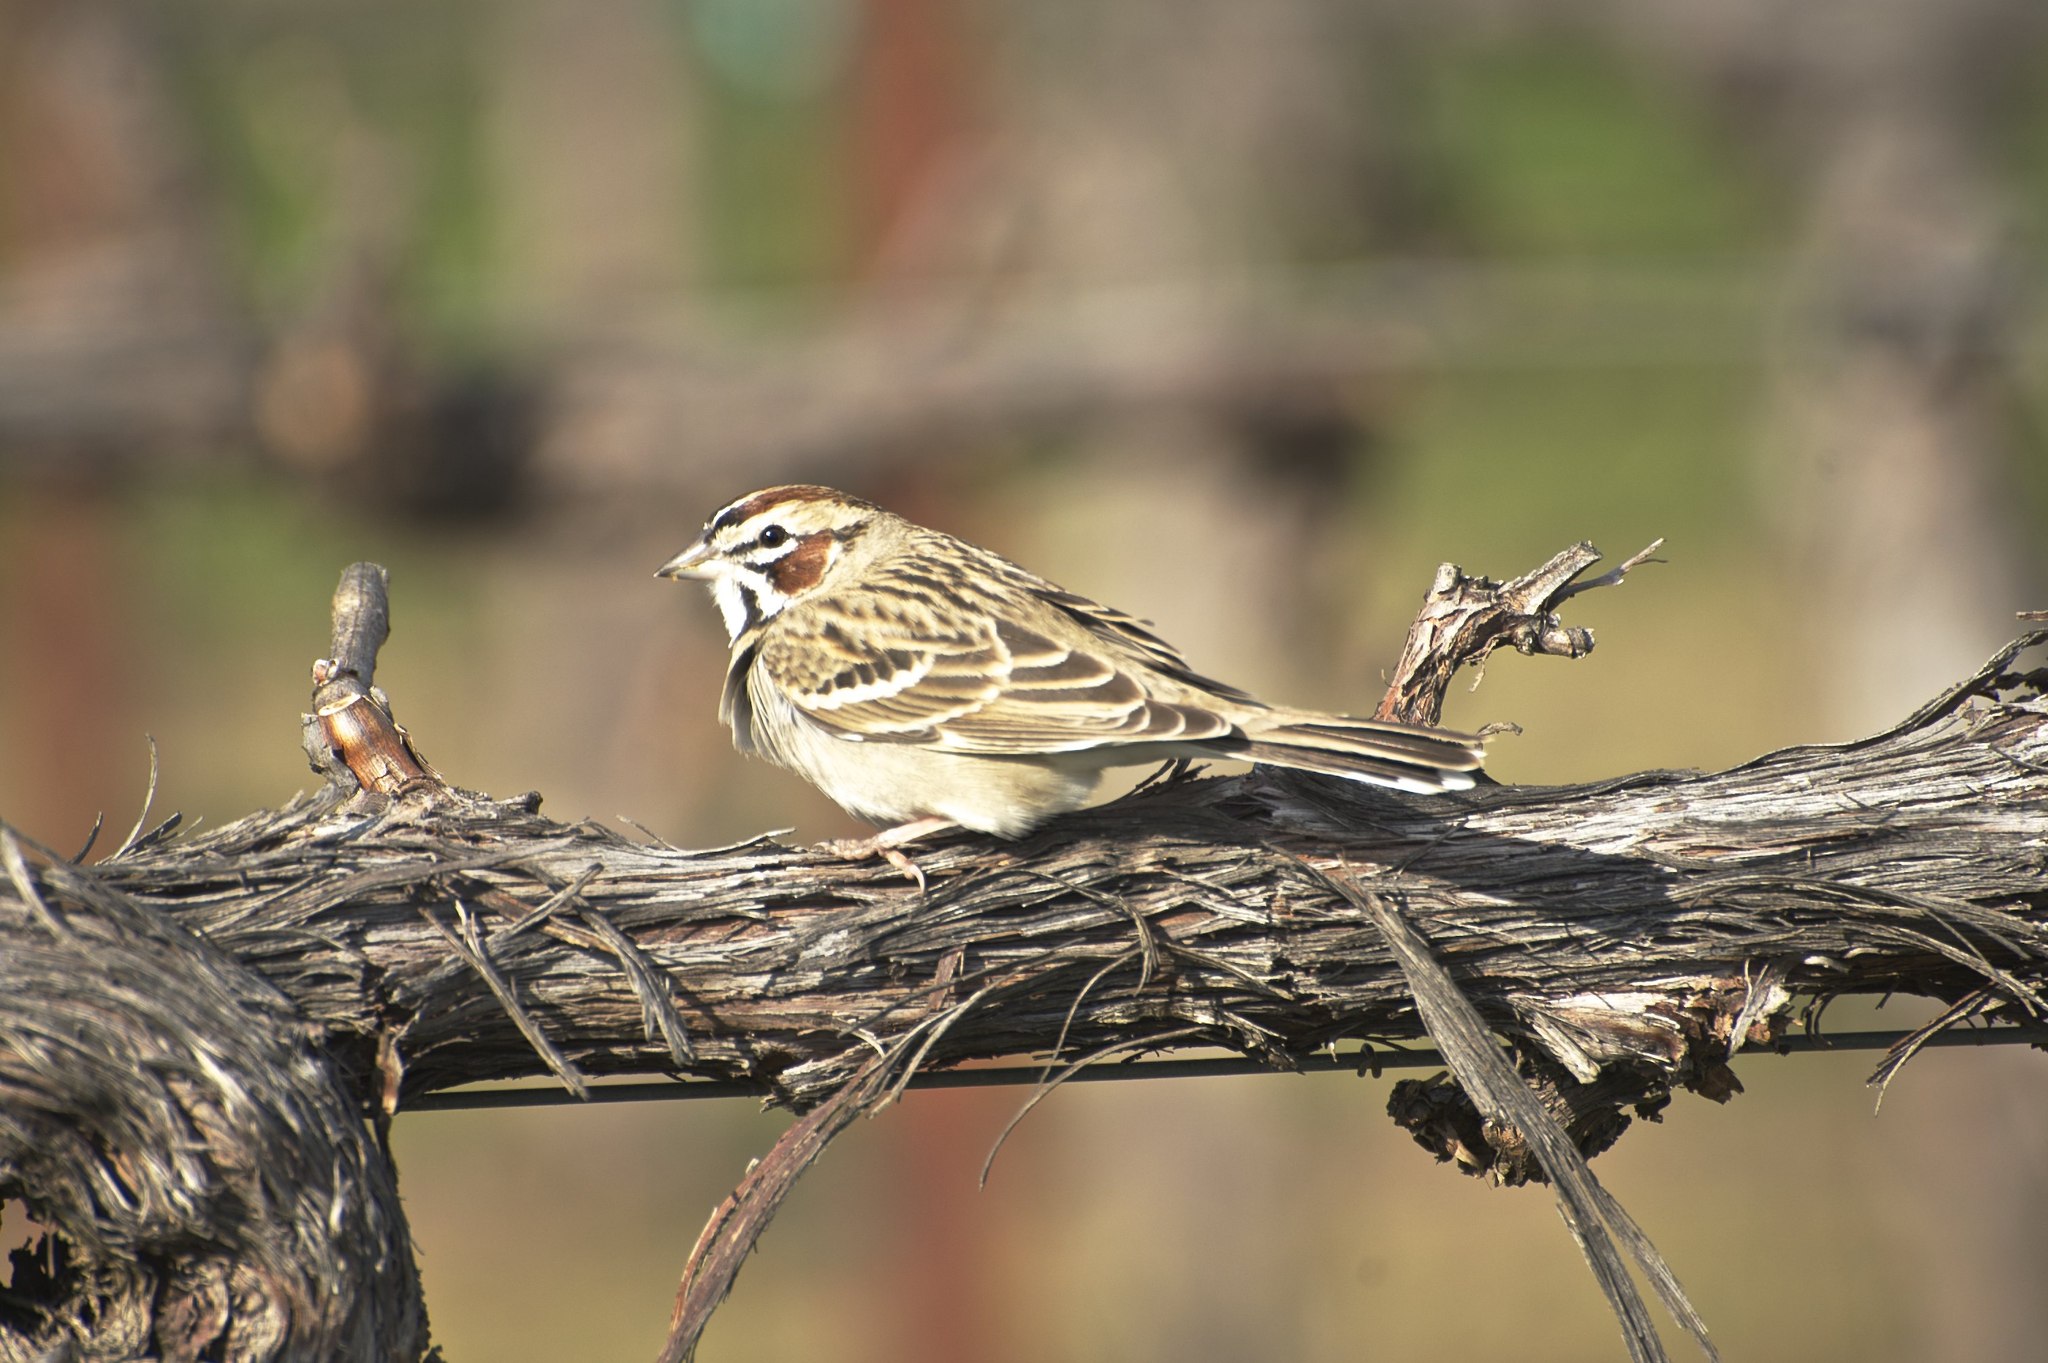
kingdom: Animalia
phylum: Chordata
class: Aves
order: Passeriformes
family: Passerellidae
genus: Chondestes
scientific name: Chondestes grammacus
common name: Lark sparrow
